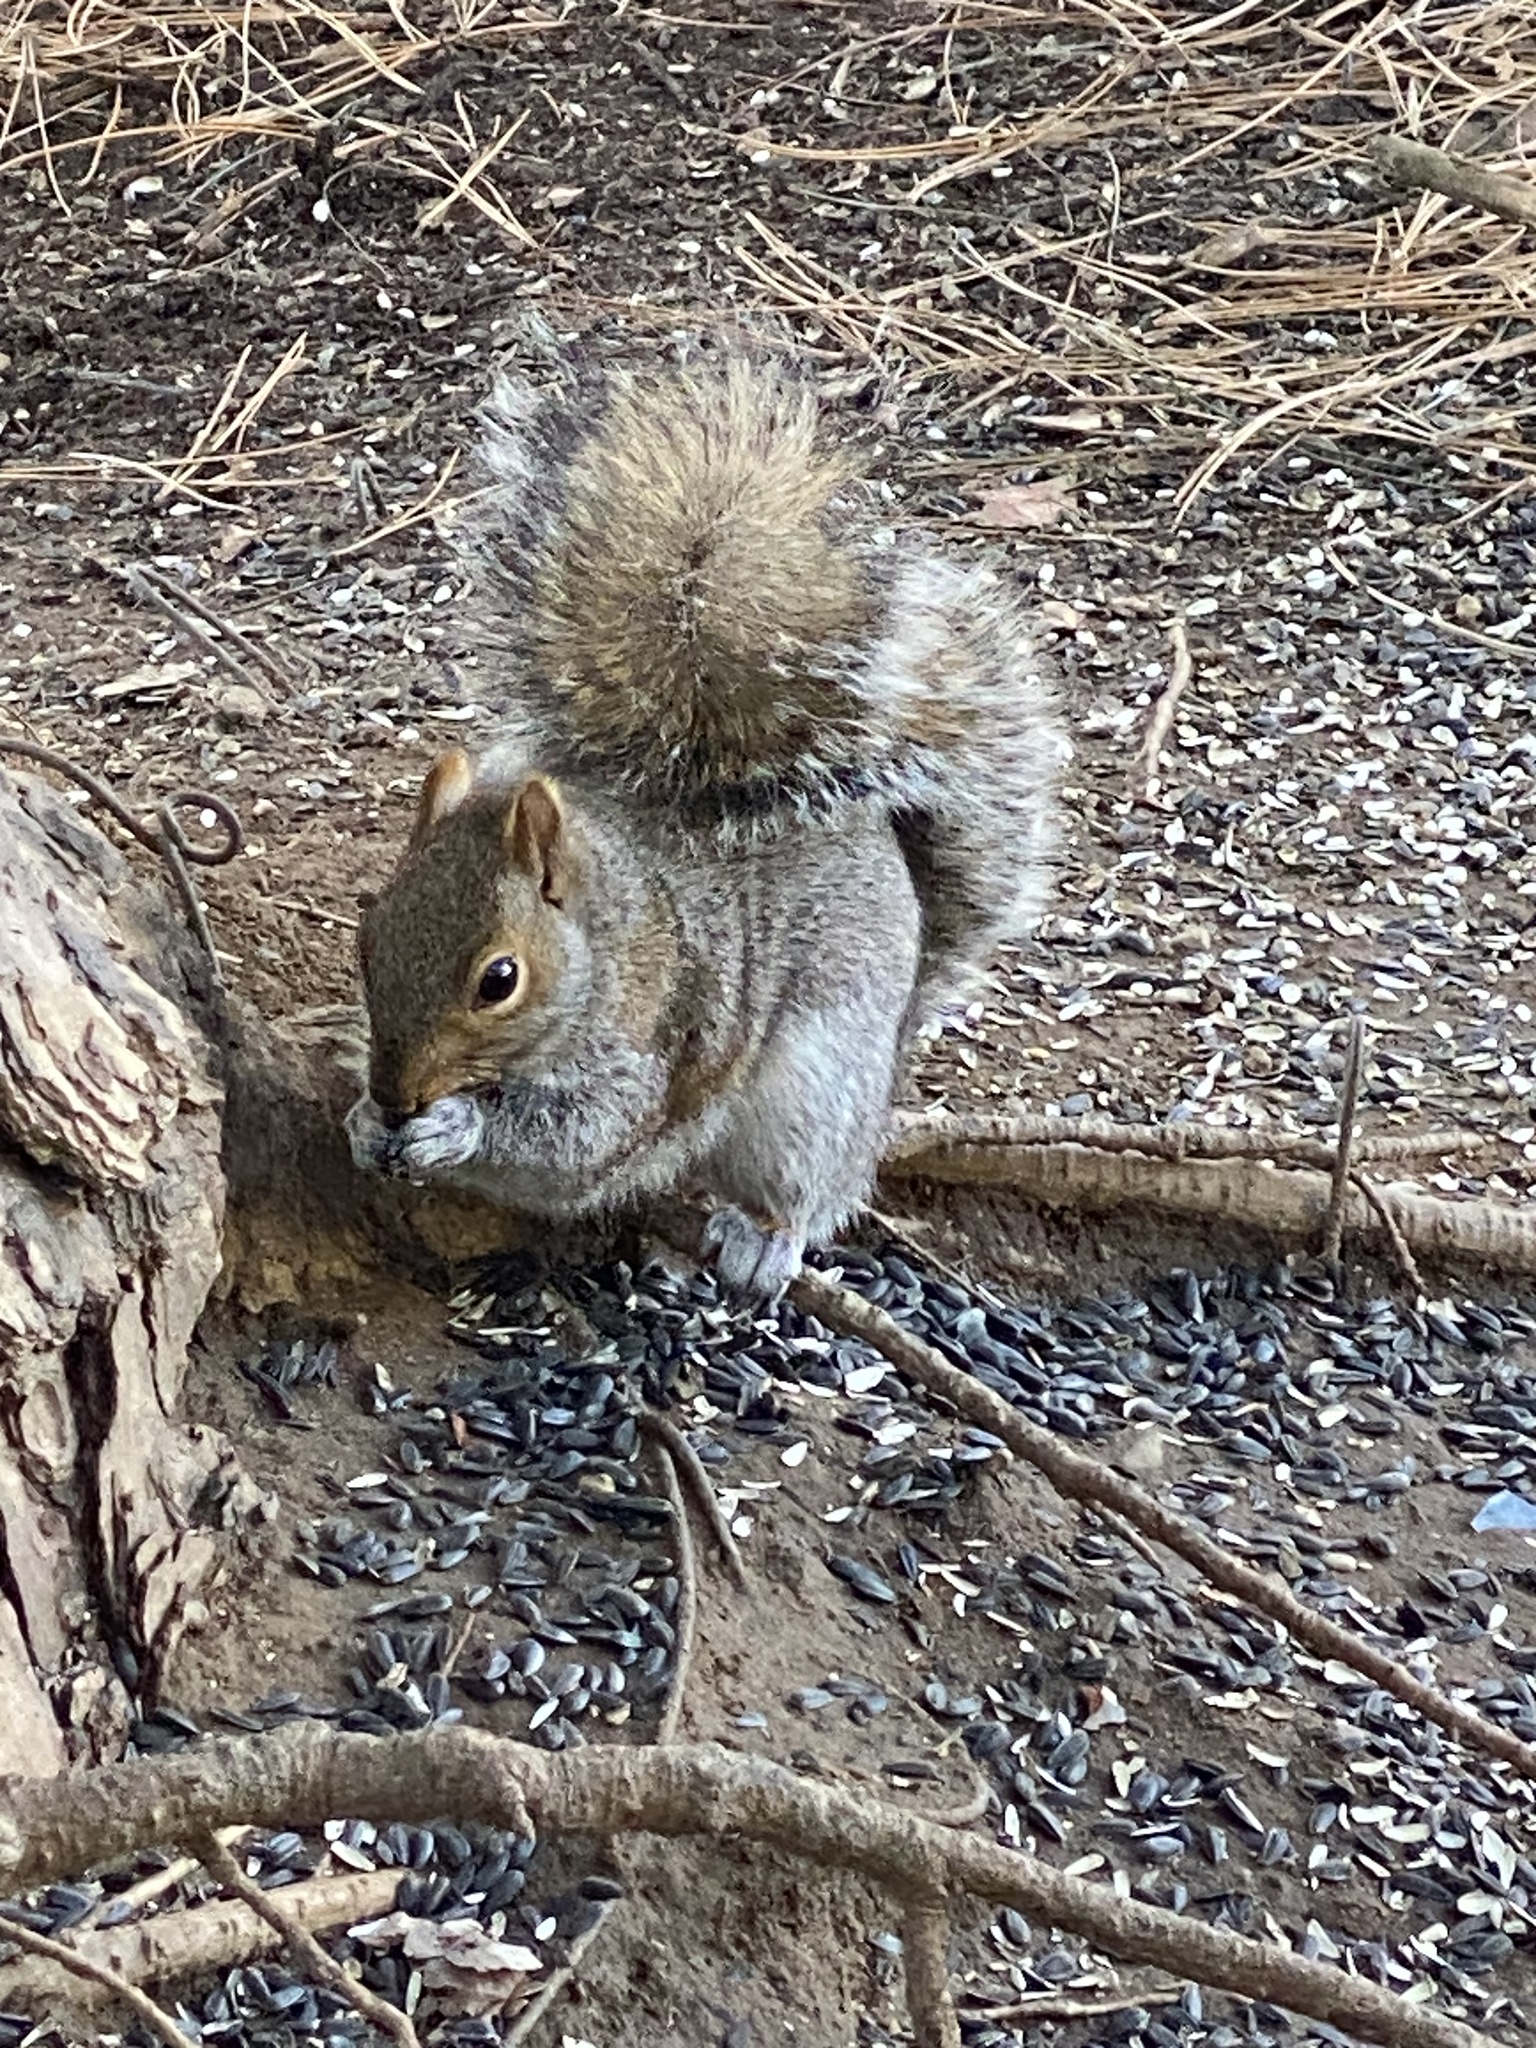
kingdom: Animalia
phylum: Chordata
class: Mammalia
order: Rodentia
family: Sciuridae
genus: Sciurus
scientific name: Sciurus carolinensis
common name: Eastern gray squirrel
